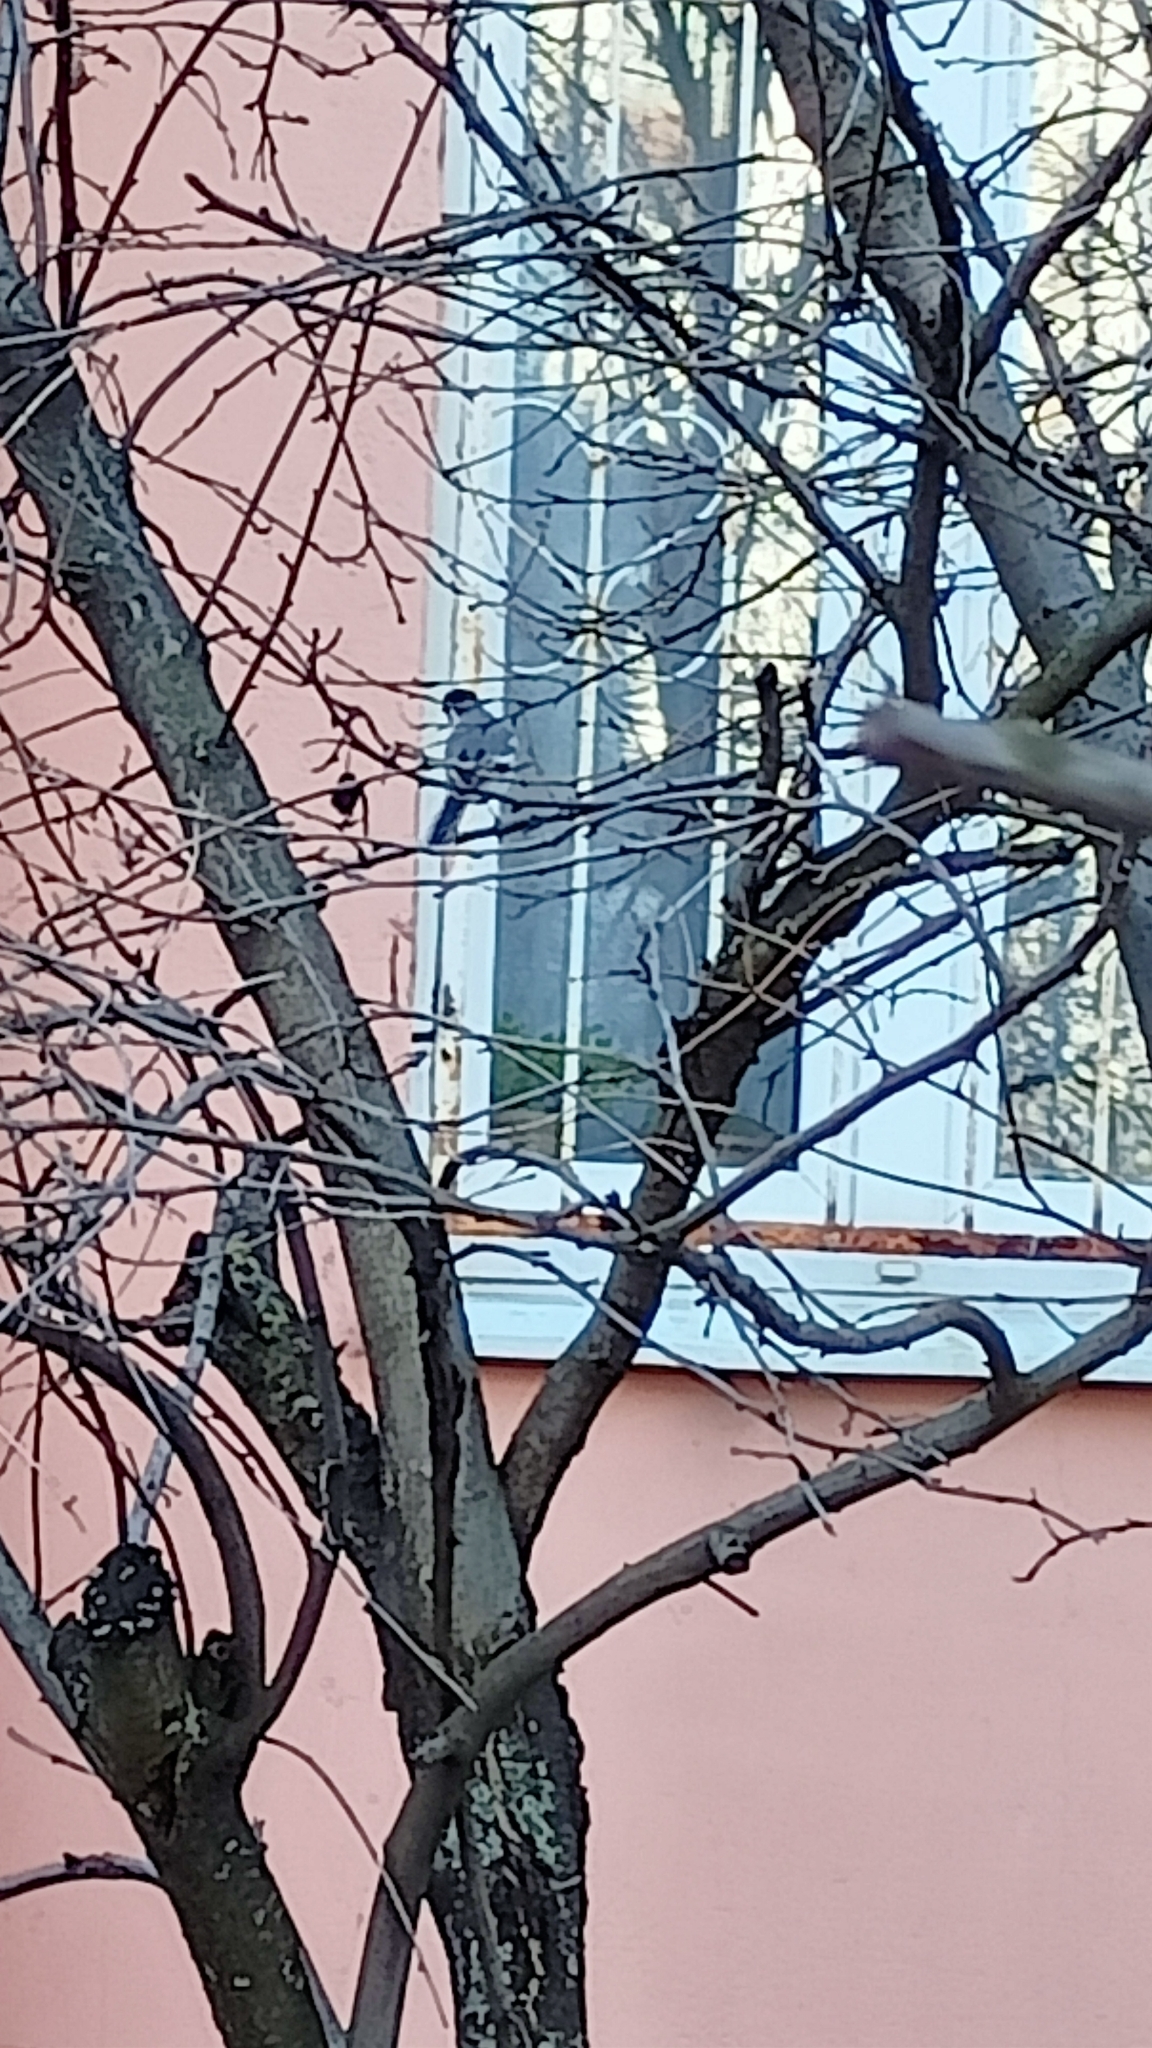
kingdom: Animalia
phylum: Chordata
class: Aves
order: Passeriformes
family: Motacillidae
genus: Motacilla
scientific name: Motacilla alba
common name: White wagtail
